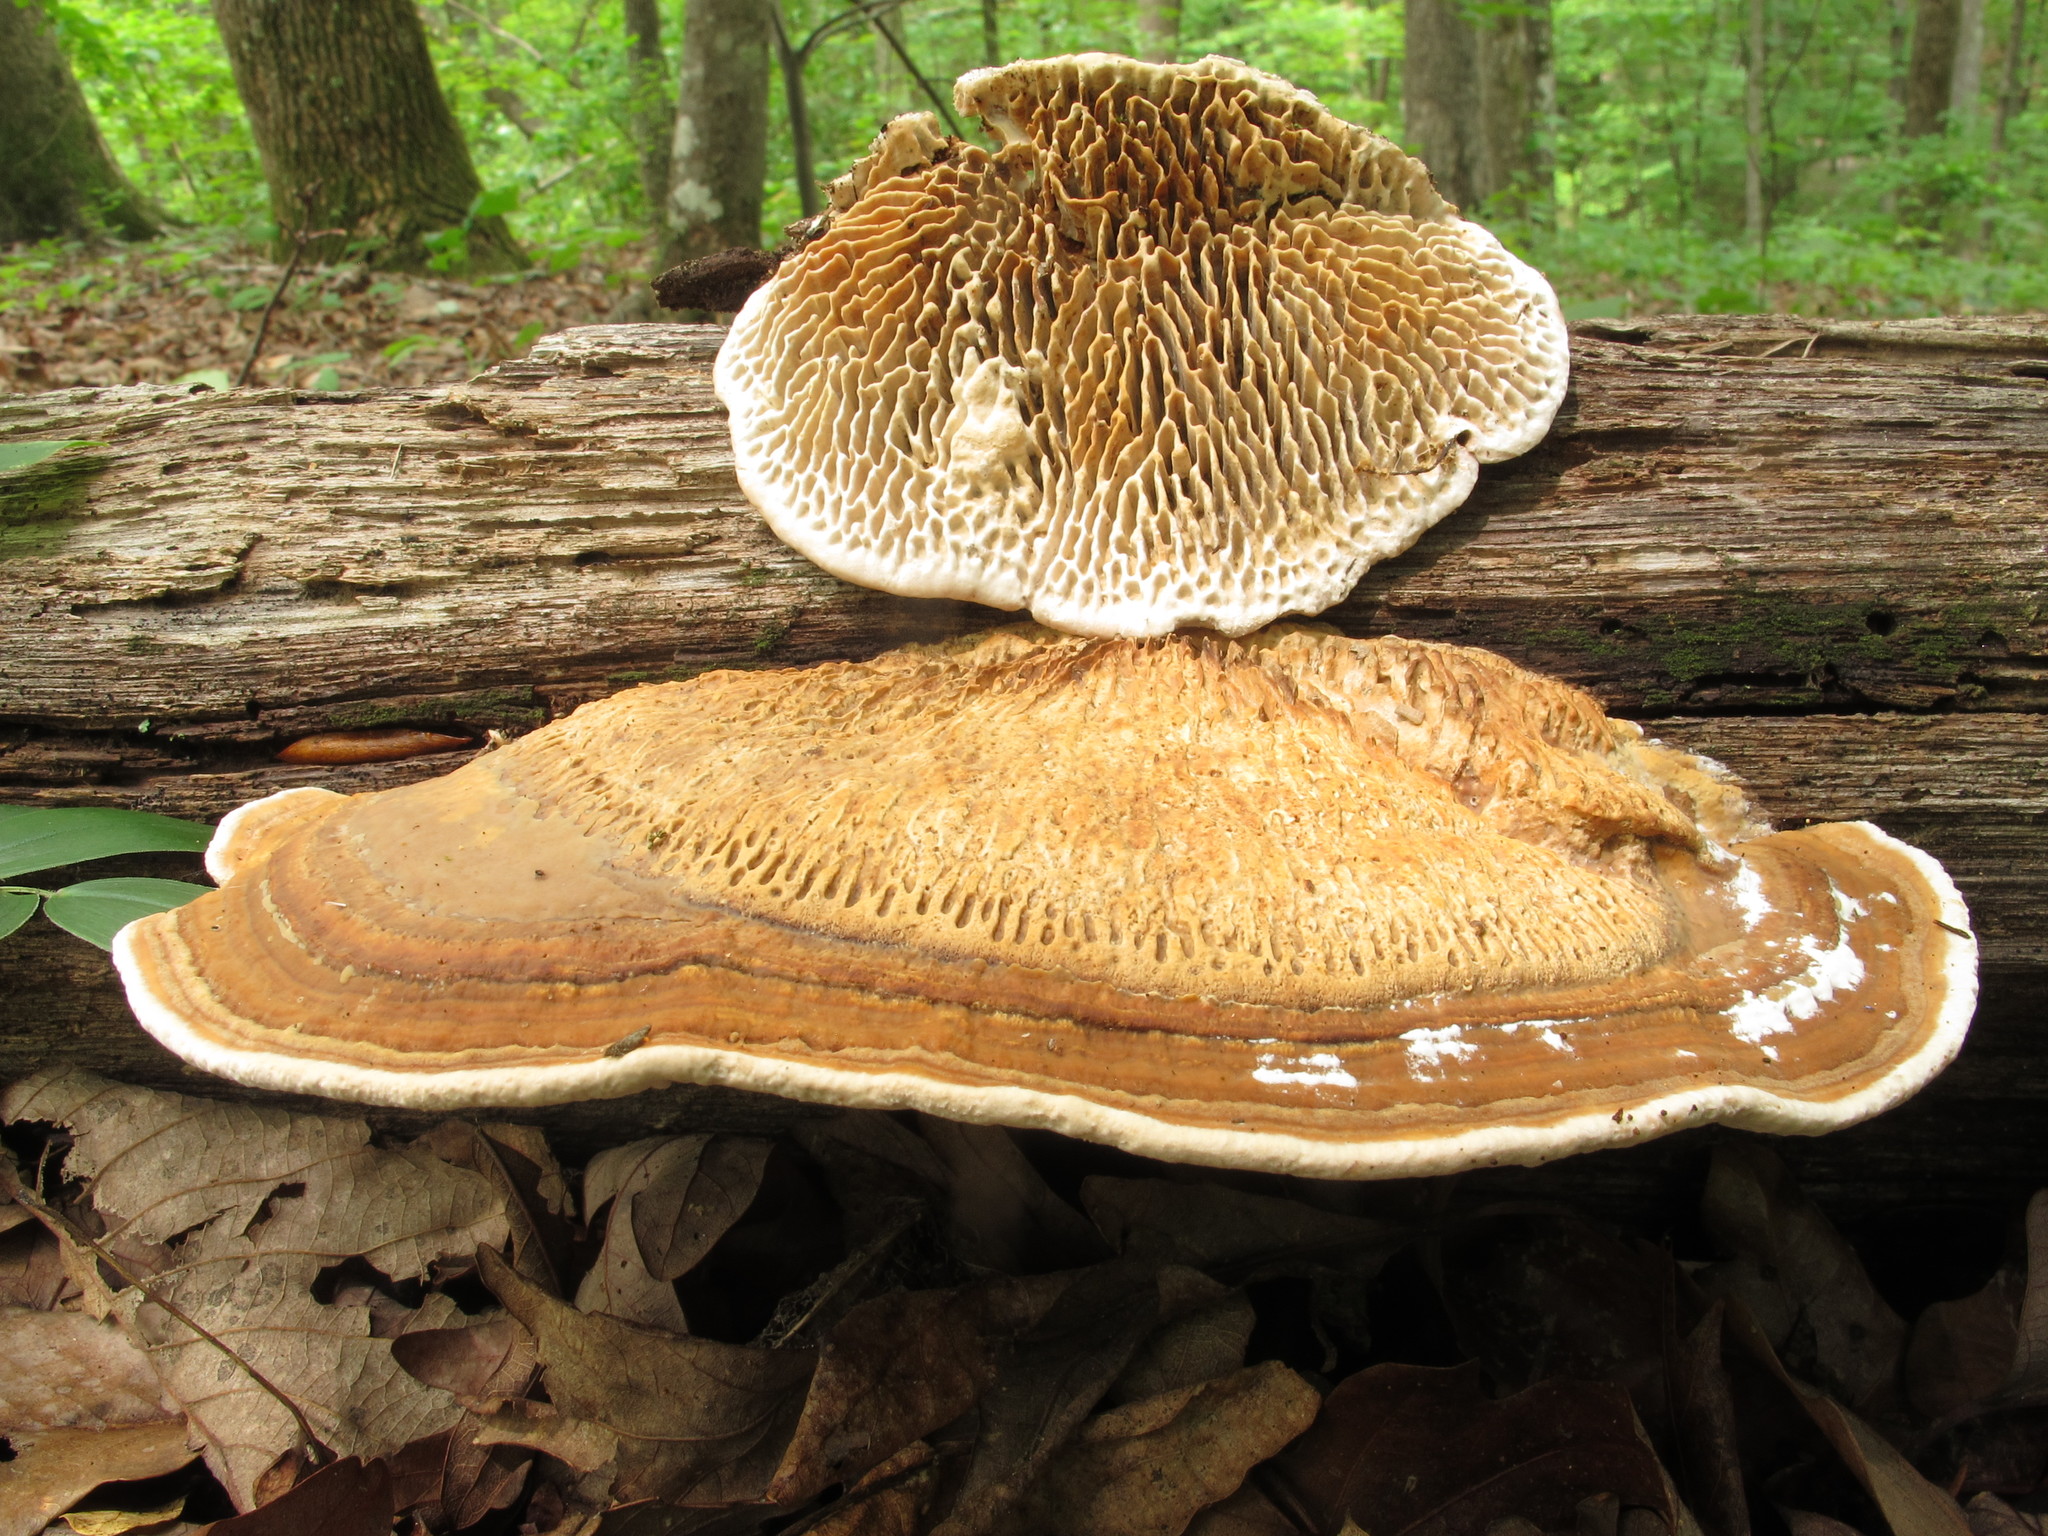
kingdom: Fungi
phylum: Basidiomycota
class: Agaricomycetes
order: Polyporales
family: Fomitopsidaceae
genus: Fomitopsis
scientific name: Fomitopsis
